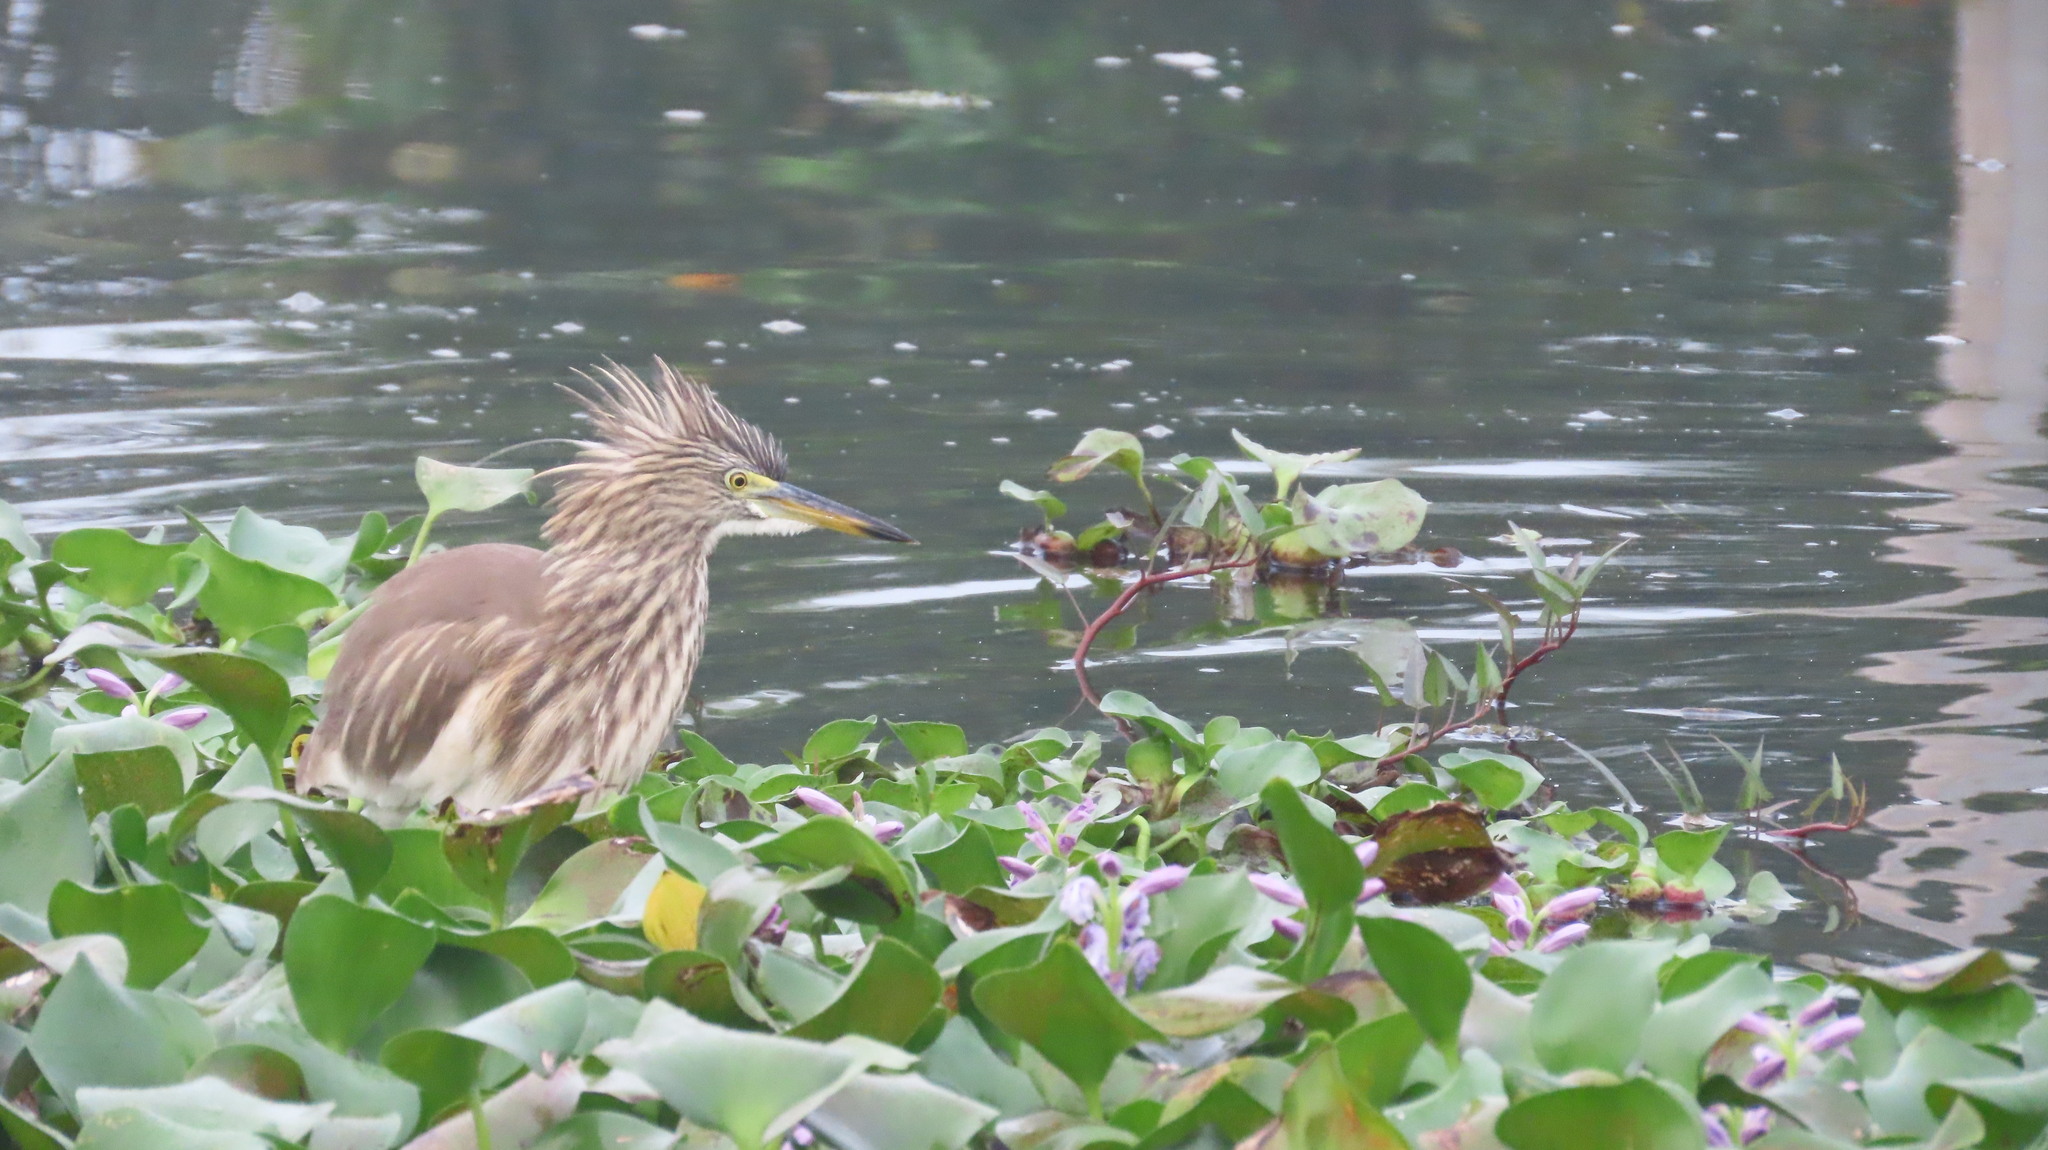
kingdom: Animalia
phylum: Chordata
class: Aves
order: Pelecaniformes
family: Ardeidae
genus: Ardeola
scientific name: Ardeola grayii
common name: Indian pond heron
